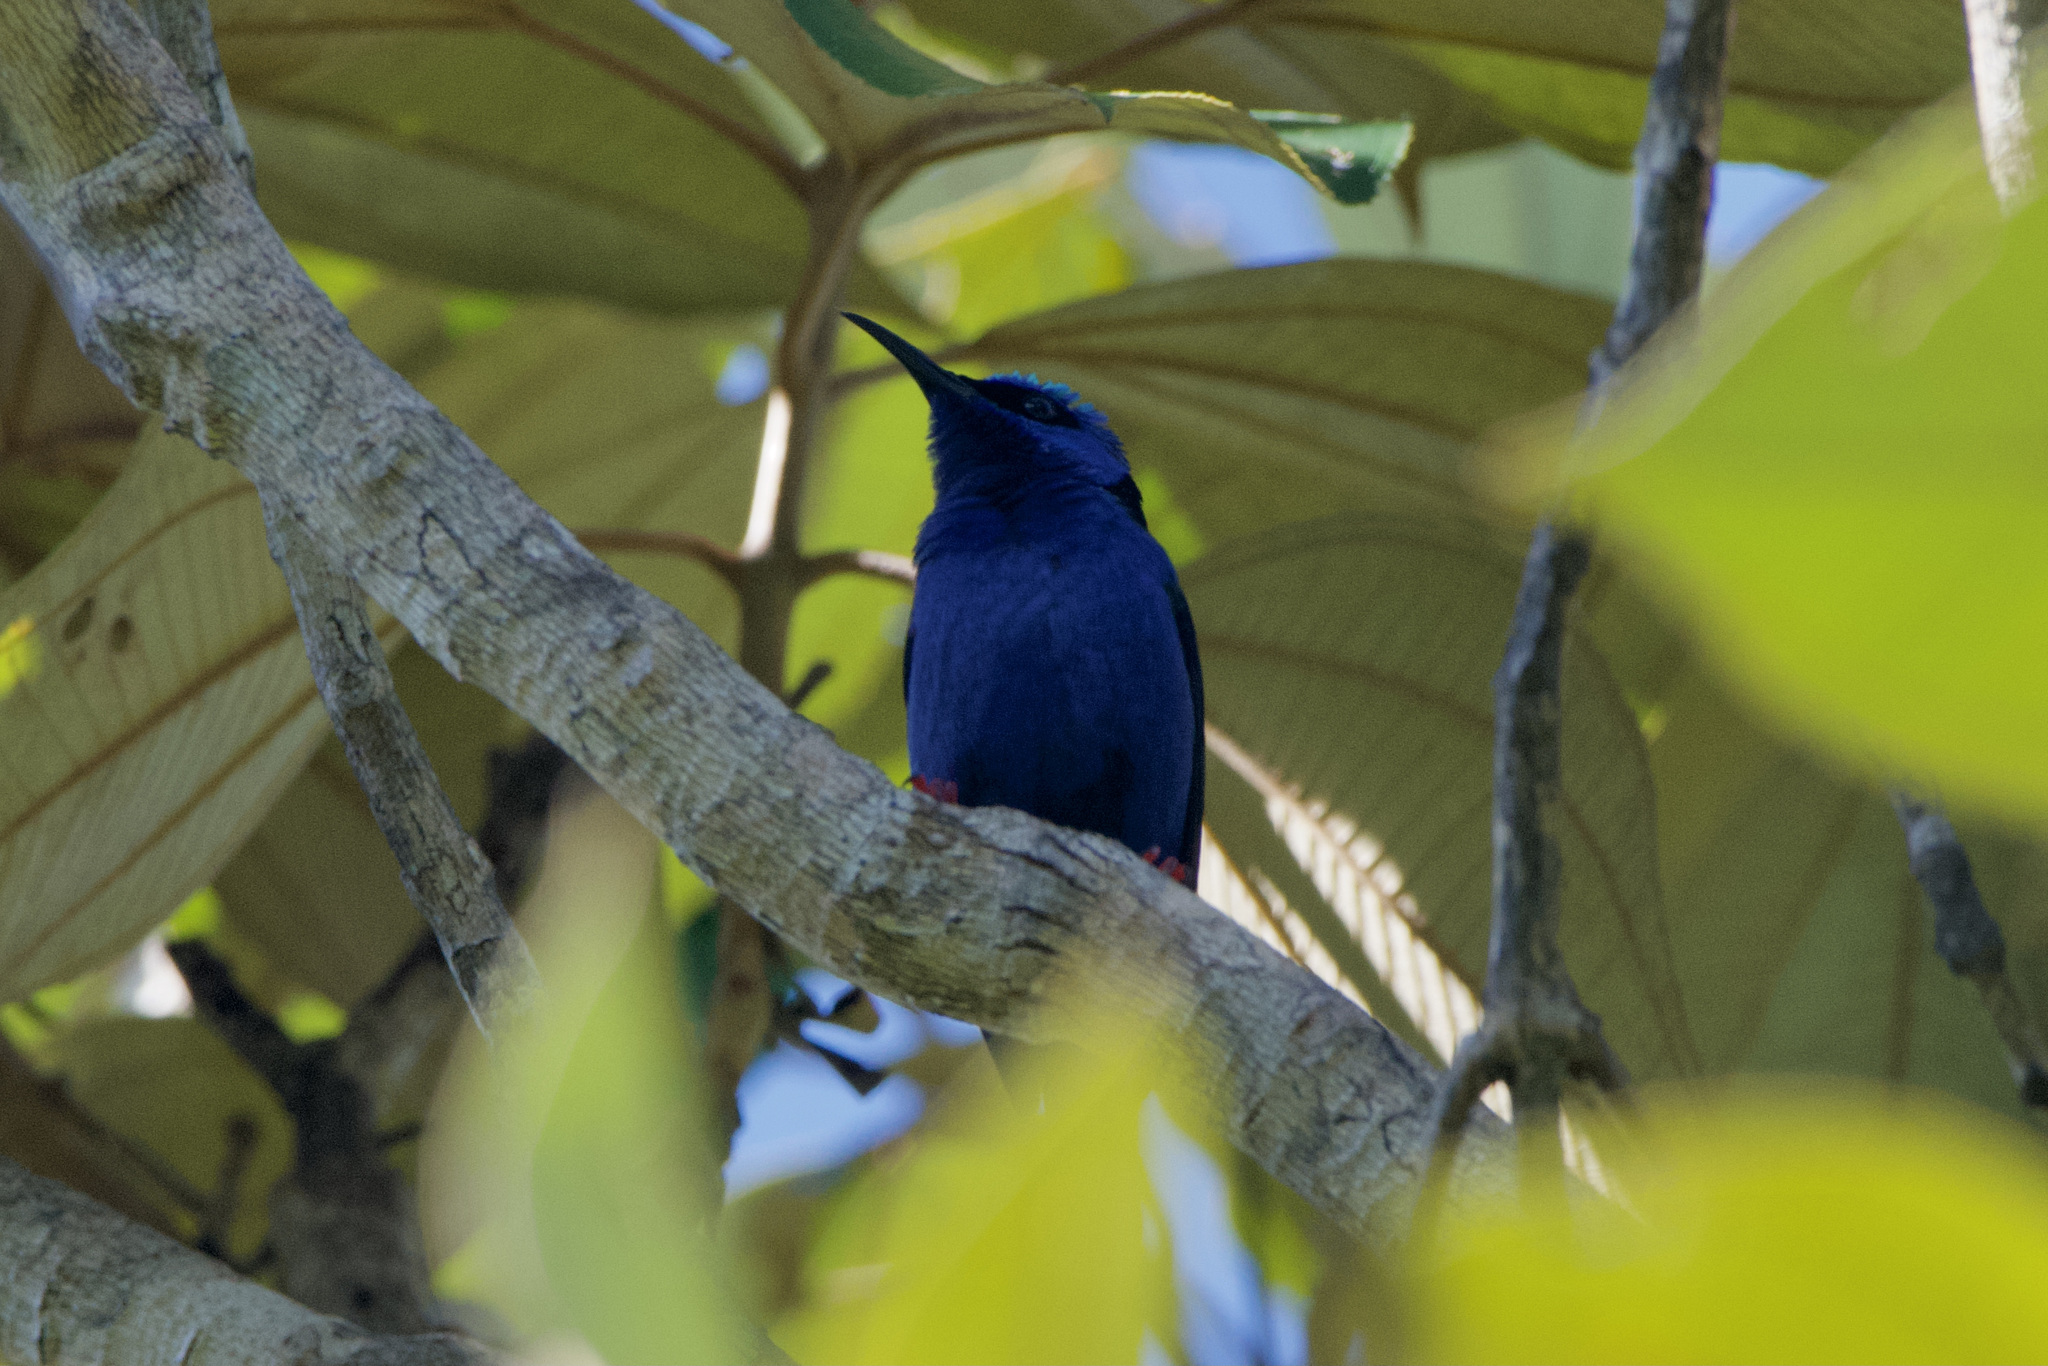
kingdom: Animalia
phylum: Chordata
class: Aves
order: Passeriformes
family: Thraupidae
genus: Cyanerpes
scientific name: Cyanerpes cyaneus
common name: Red-legged honeycreeper
